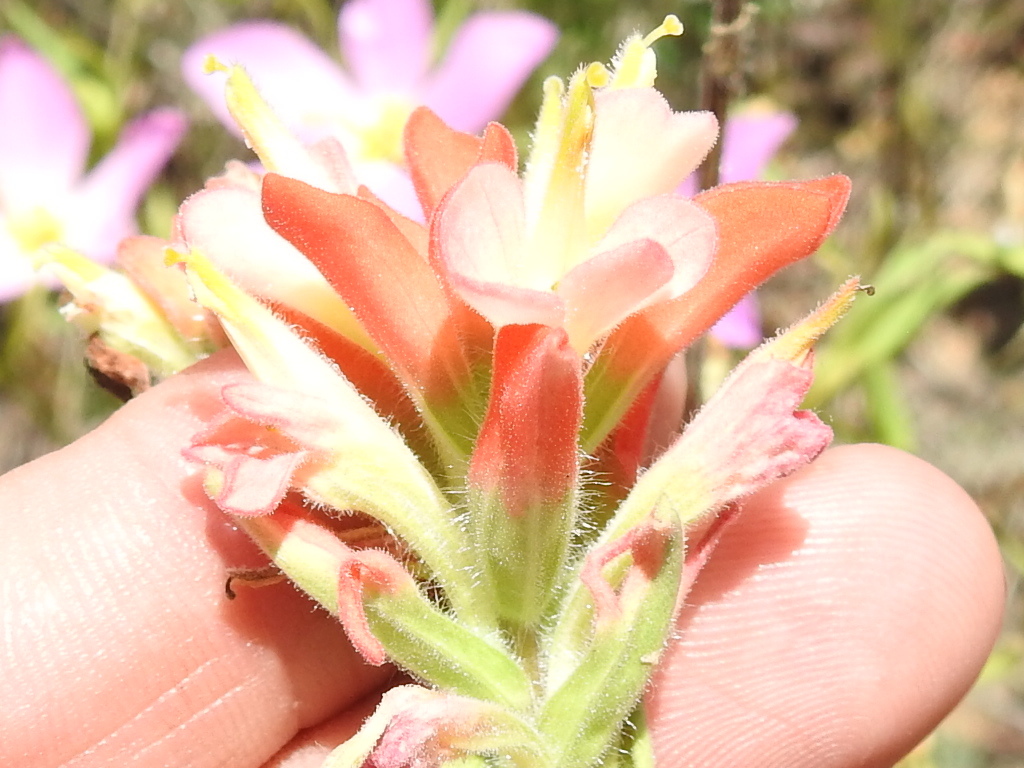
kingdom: Plantae
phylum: Tracheophyta
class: Magnoliopsida
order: Lamiales
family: Orobanchaceae
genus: Castilleja
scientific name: Castilleja indivisa
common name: Texas paintbrush
